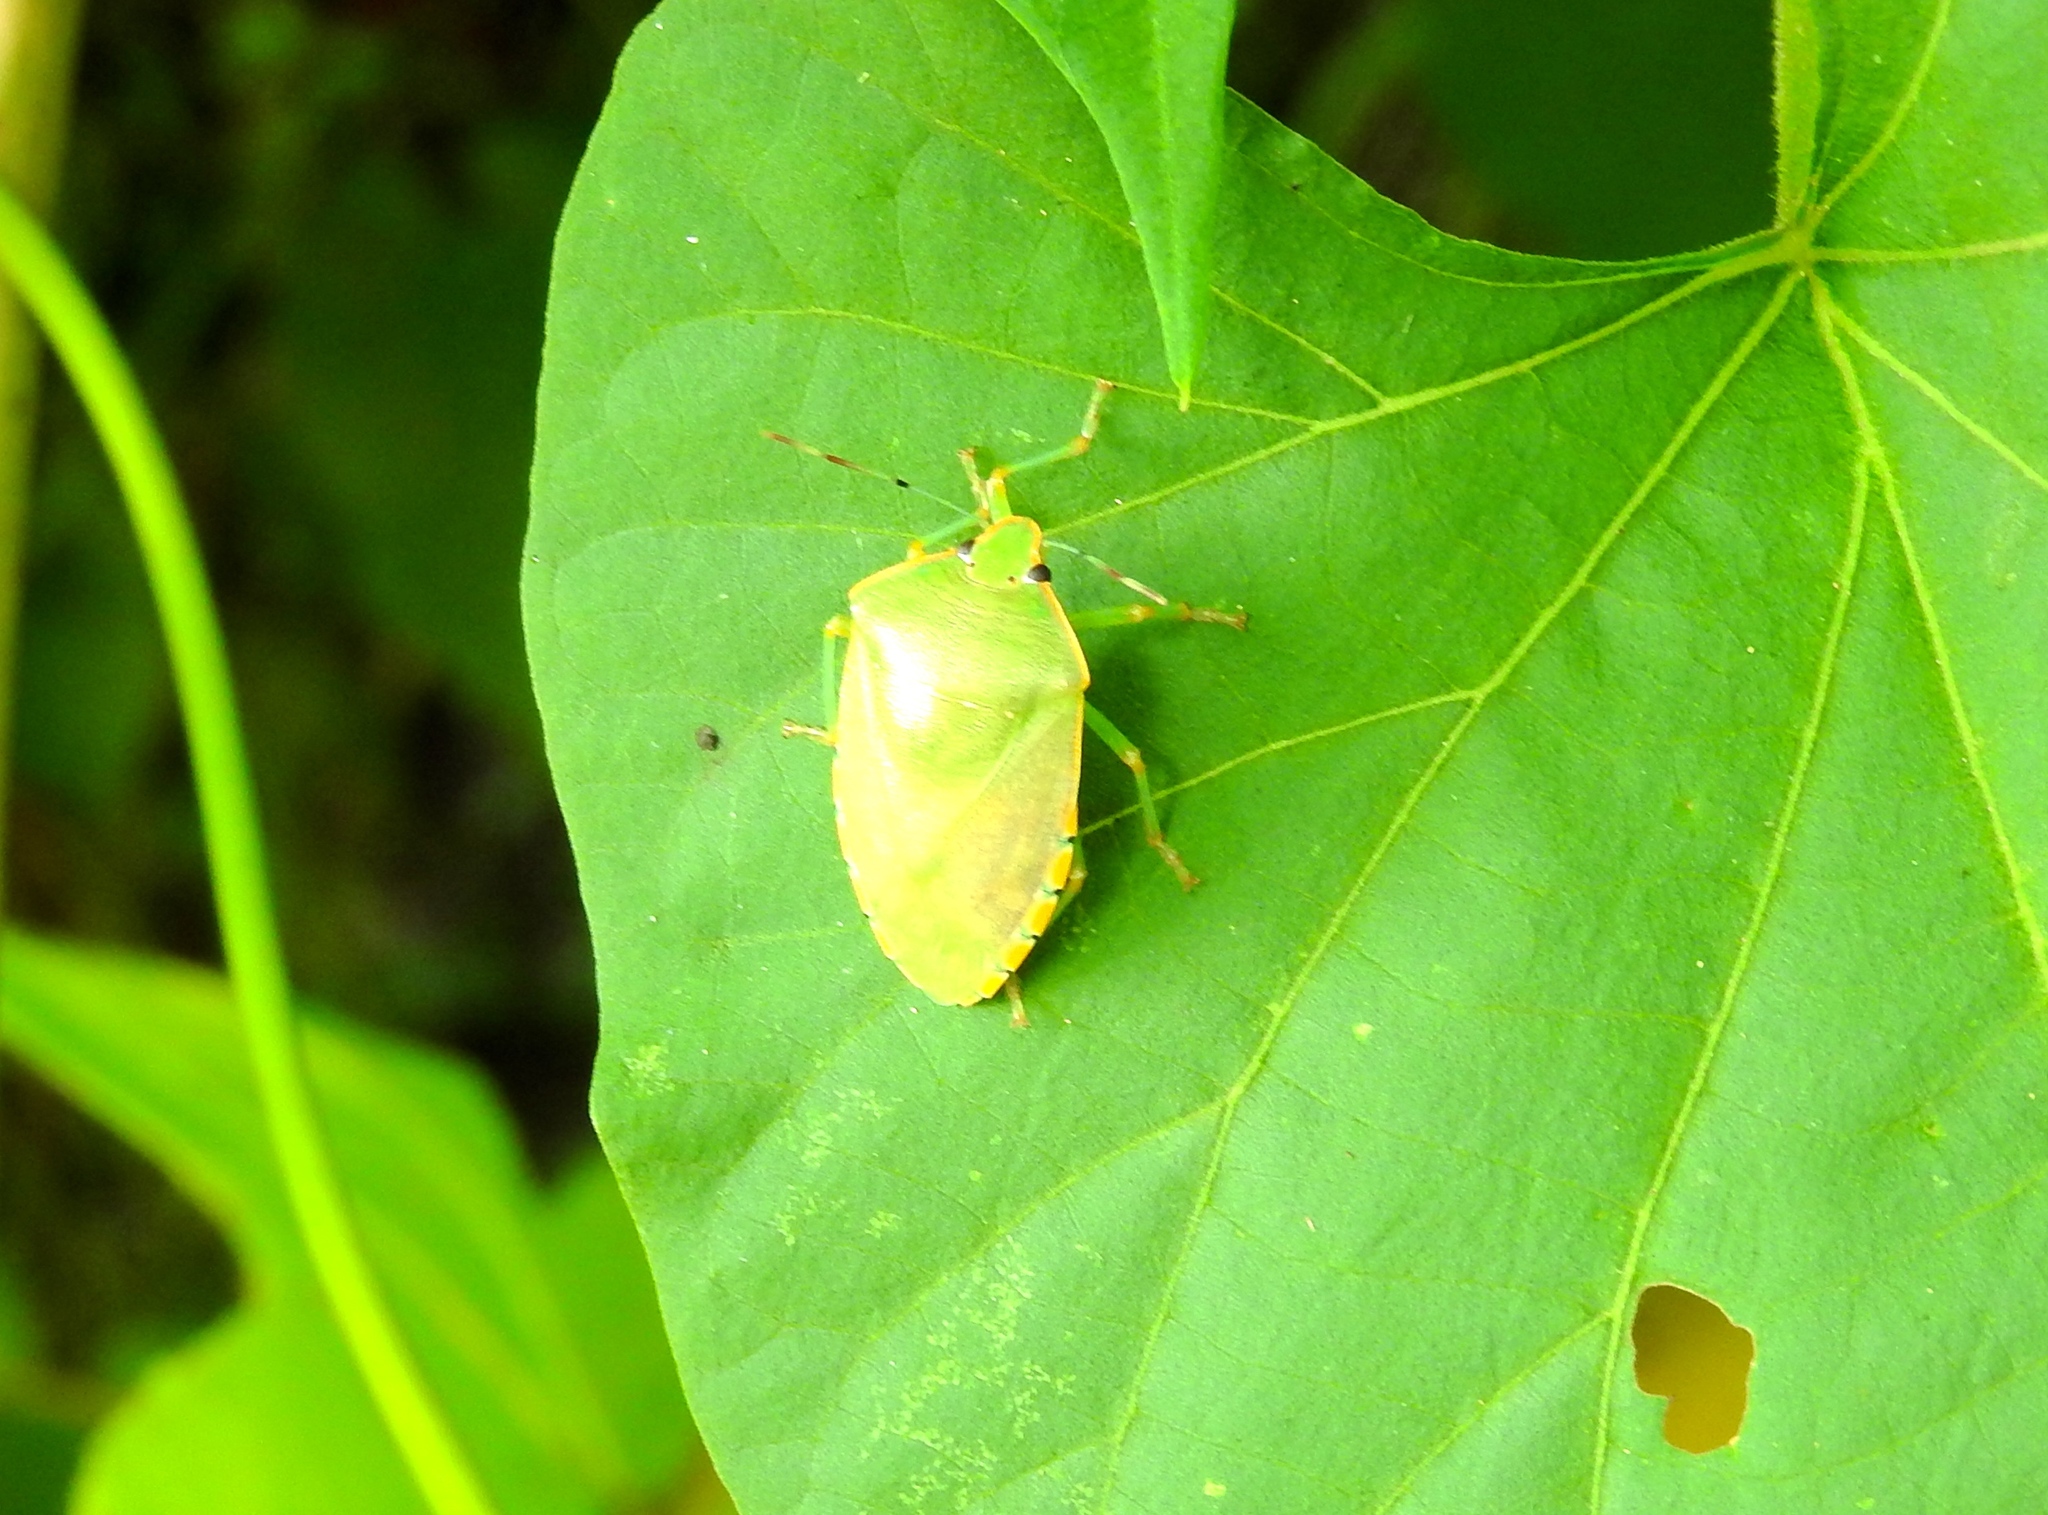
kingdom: Animalia
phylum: Arthropoda
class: Insecta
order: Hemiptera
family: Pentatomidae
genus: Chinavia
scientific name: Chinavia
